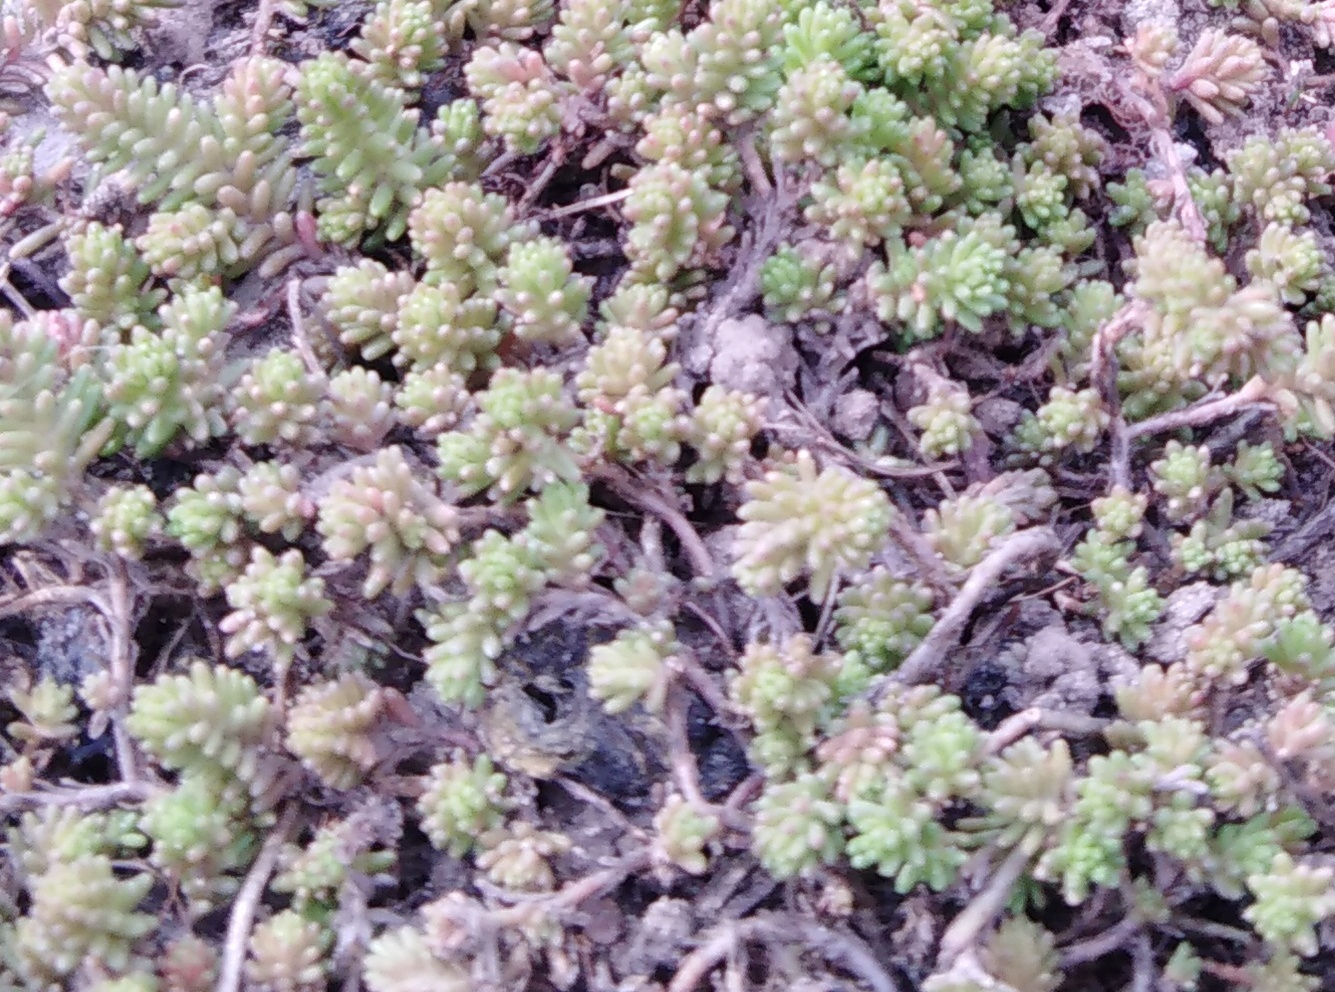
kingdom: Plantae
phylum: Tracheophyta
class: Magnoliopsida
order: Saxifragales
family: Crassulaceae
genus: Sedum
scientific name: Sedum sexangulare
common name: Tasteless stonecrop
